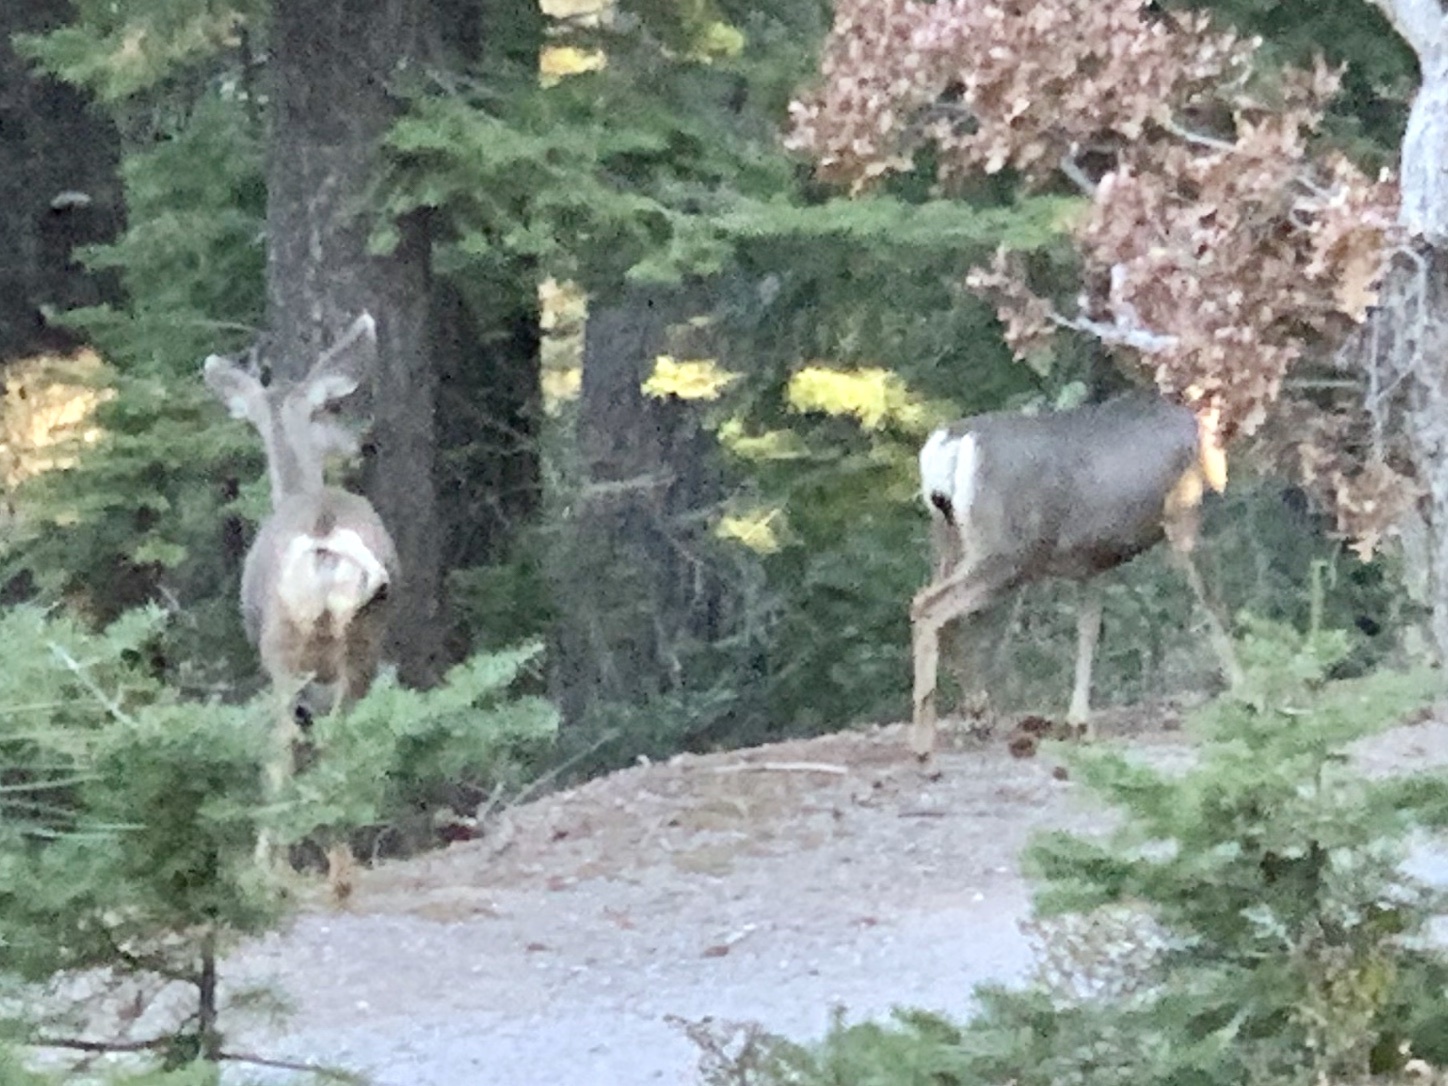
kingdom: Animalia
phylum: Chordata
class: Mammalia
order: Artiodactyla
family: Cervidae
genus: Odocoileus
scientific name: Odocoileus hemionus
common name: Mule deer
